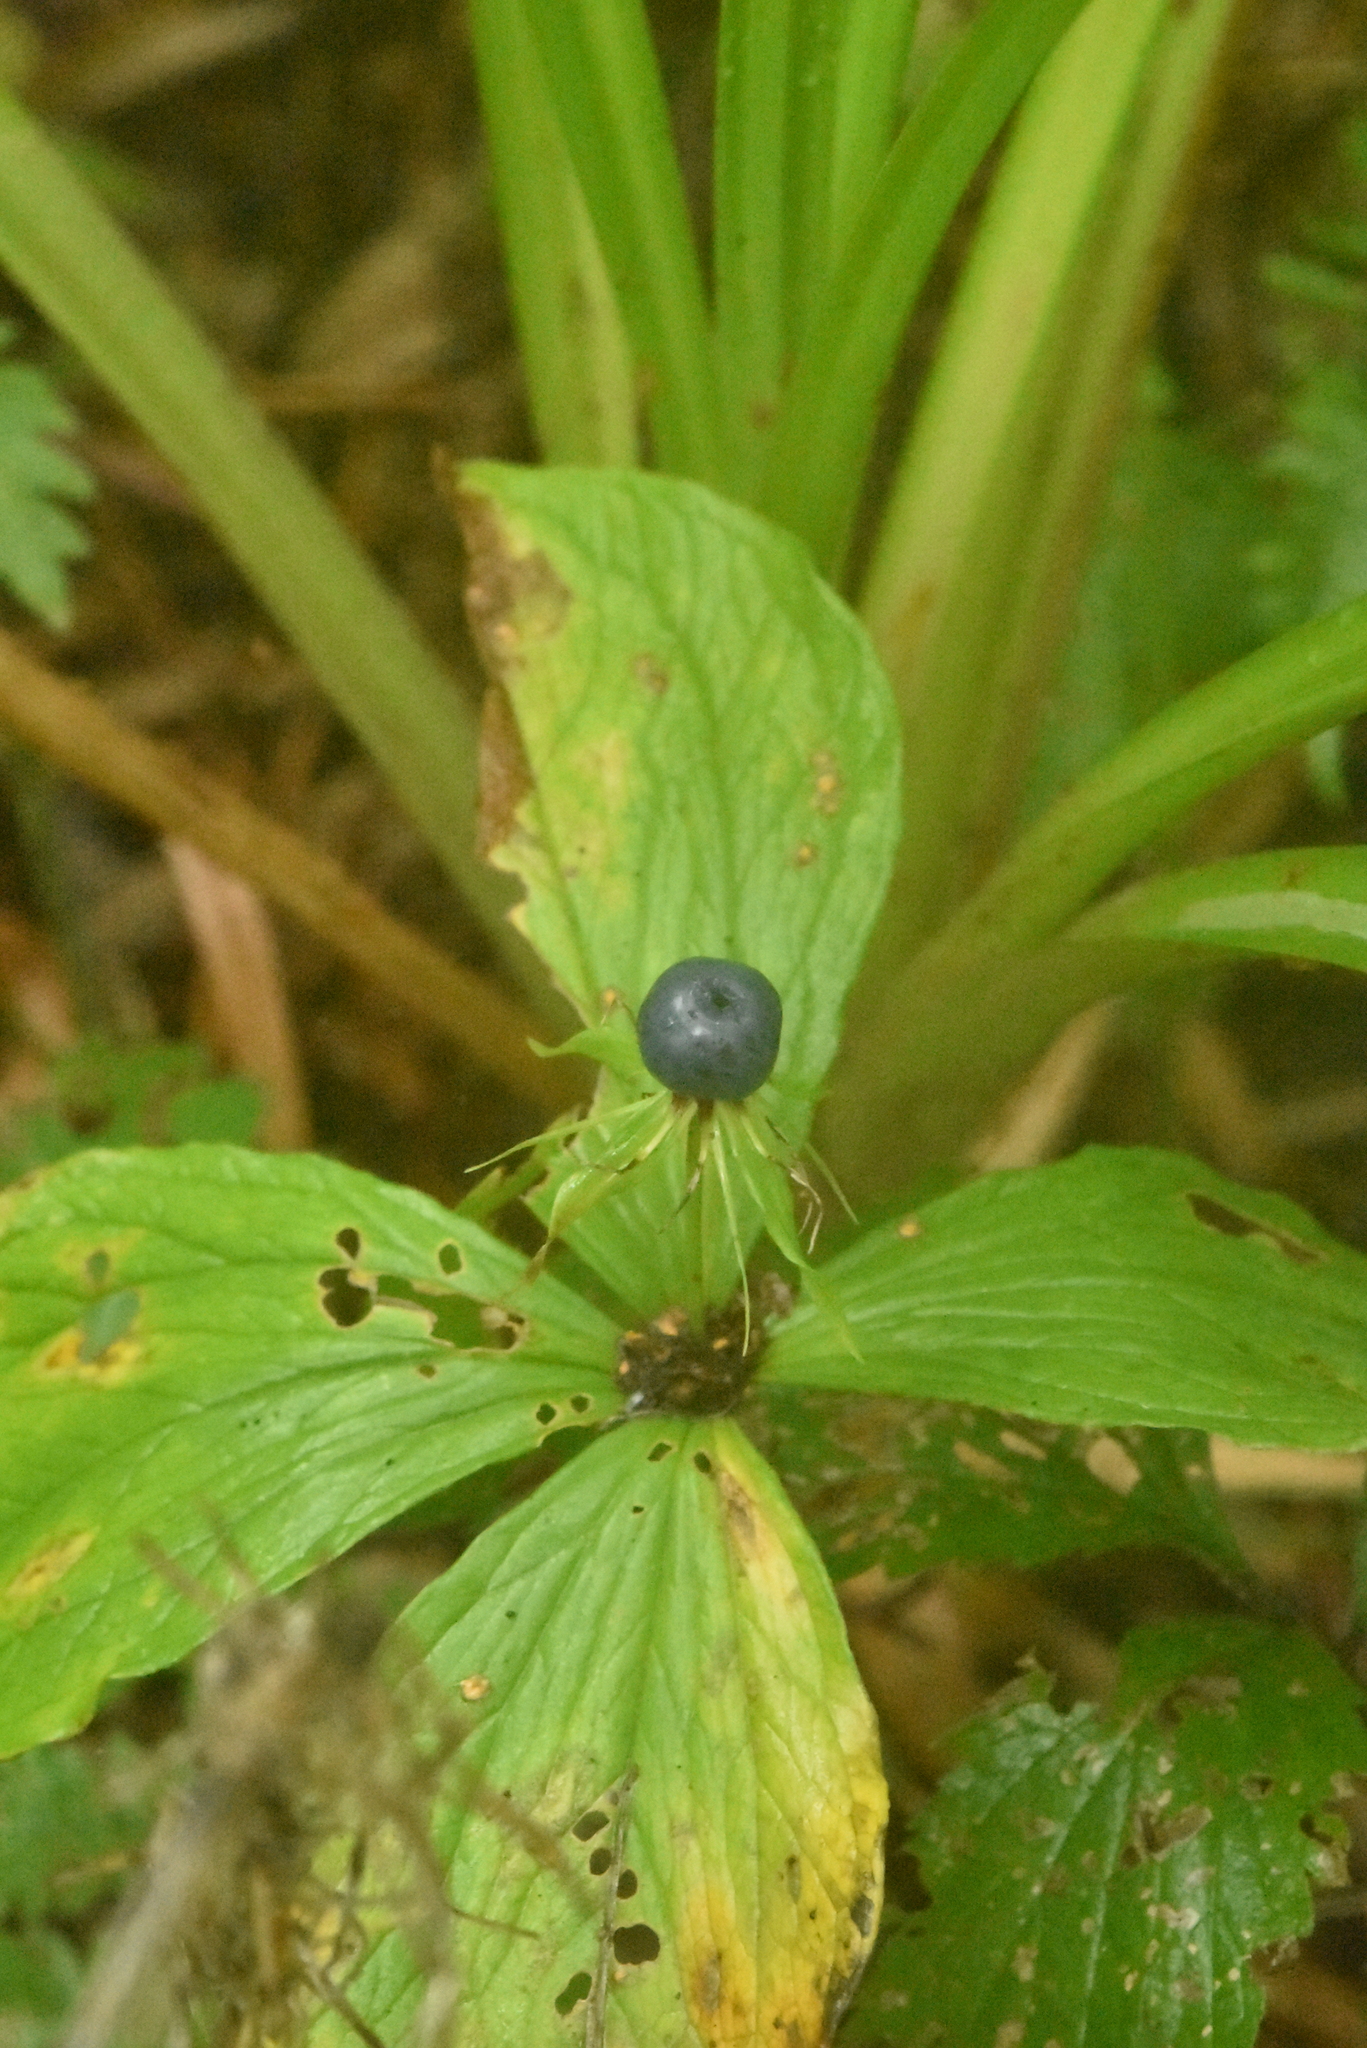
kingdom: Plantae
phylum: Tracheophyta
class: Liliopsida
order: Liliales
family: Melanthiaceae
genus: Paris
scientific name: Paris quadrifolia
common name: Herb-paris
